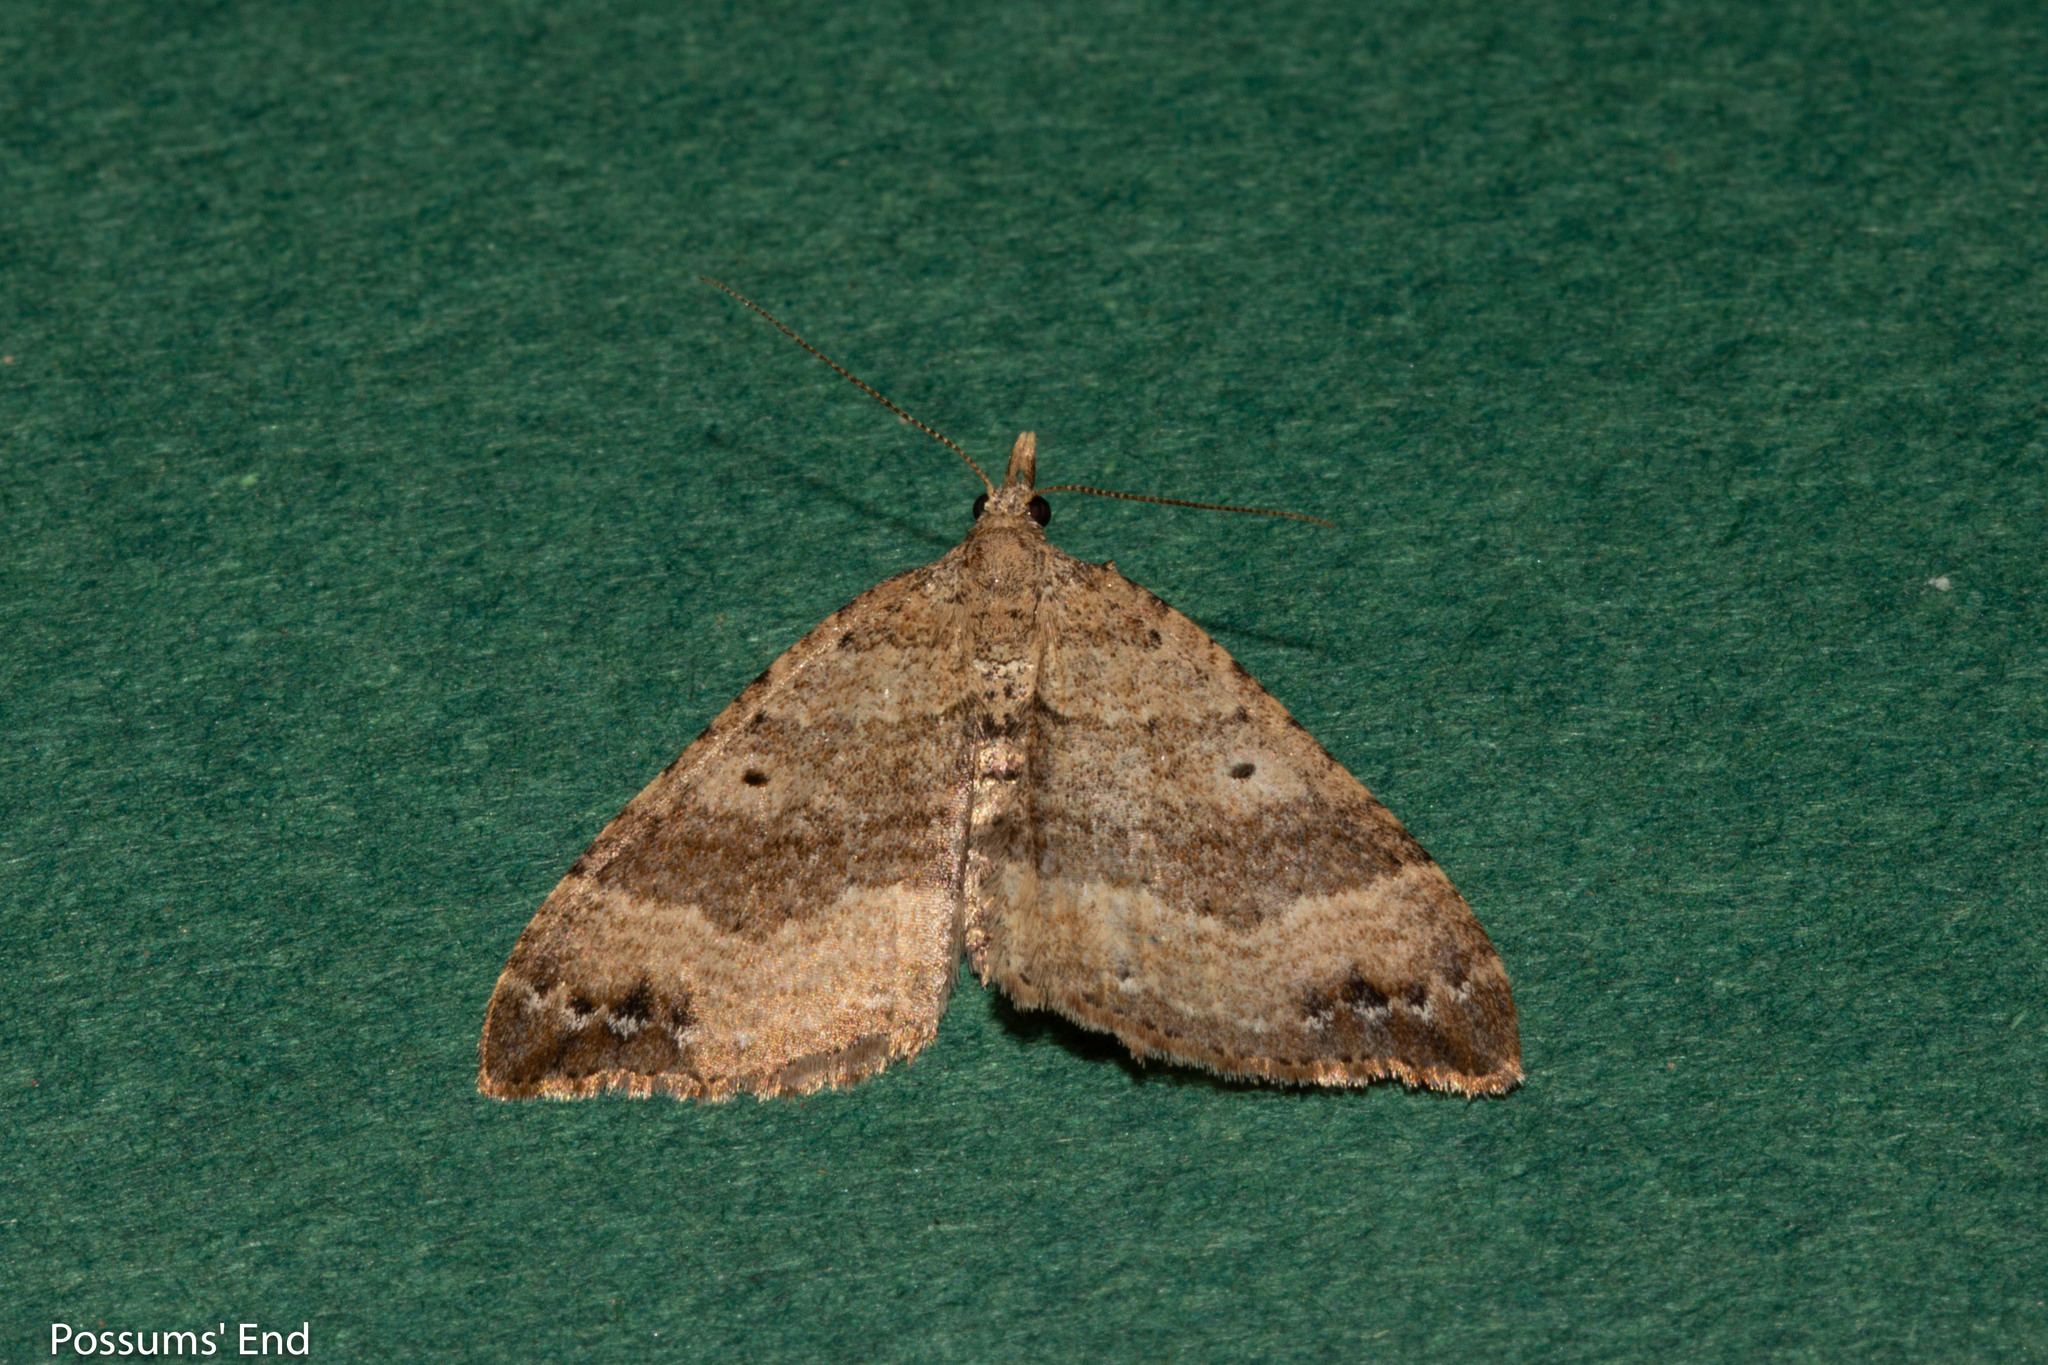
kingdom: Animalia
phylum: Arthropoda
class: Insecta
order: Lepidoptera
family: Geometridae
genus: Homodotis
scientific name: Homodotis falcata
